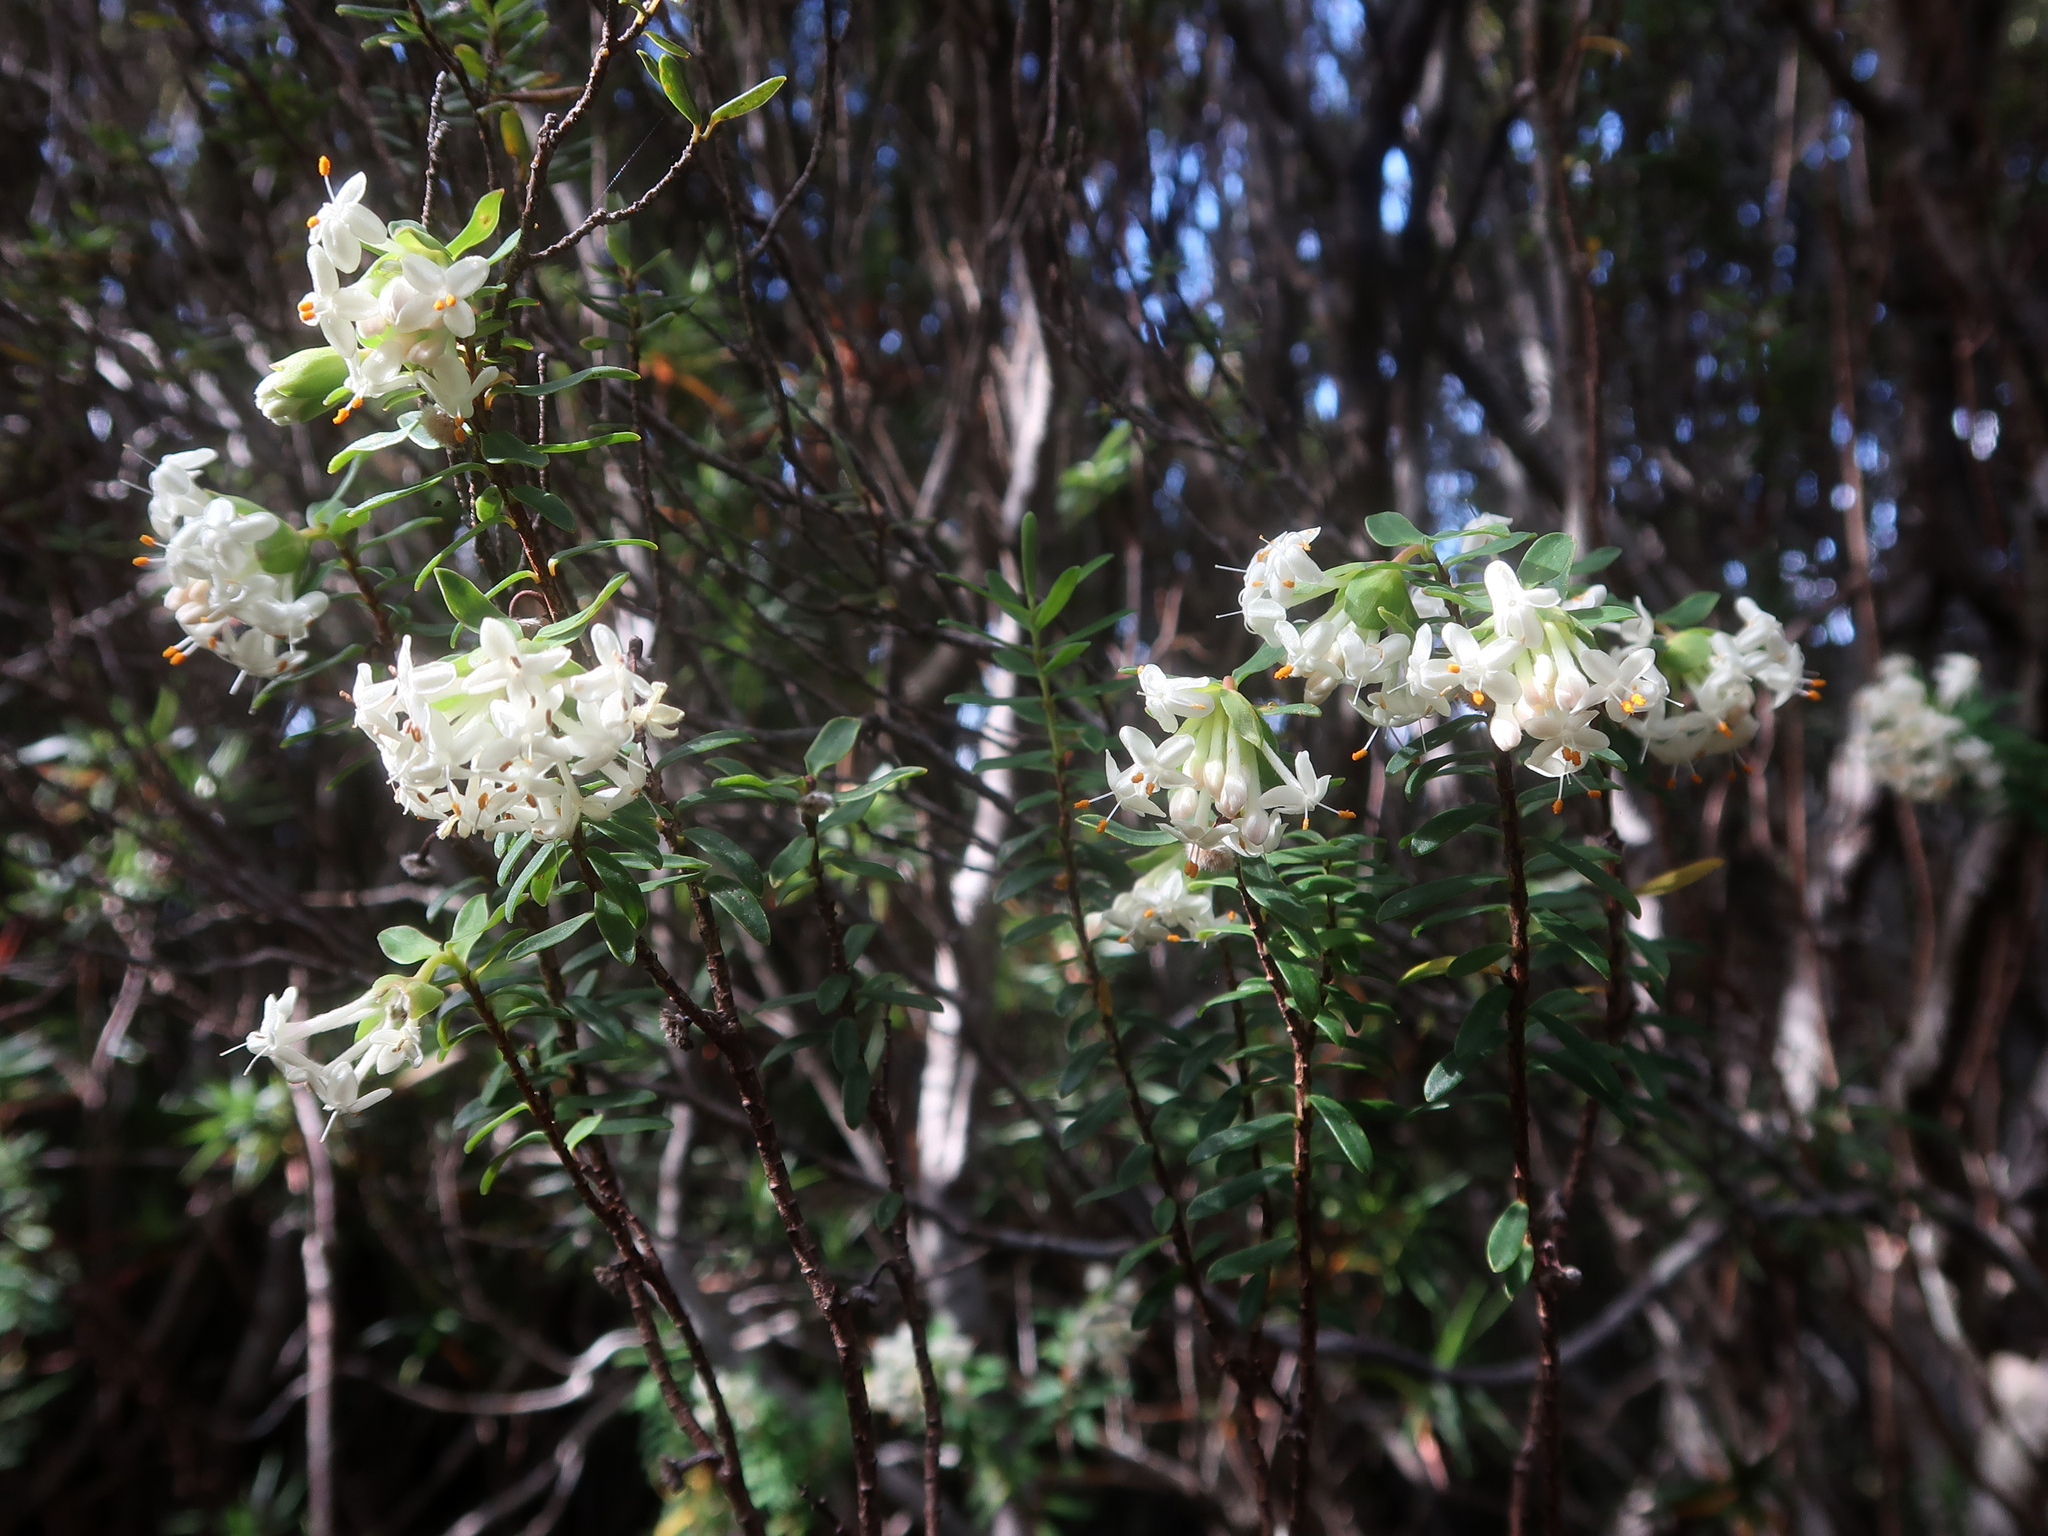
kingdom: Plantae
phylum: Tracheophyta
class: Magnoliopsida
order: Malvales
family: Thymelaeaceae
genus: Pimelea
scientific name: Pimelea linifolia
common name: Queen-of-the-bush
